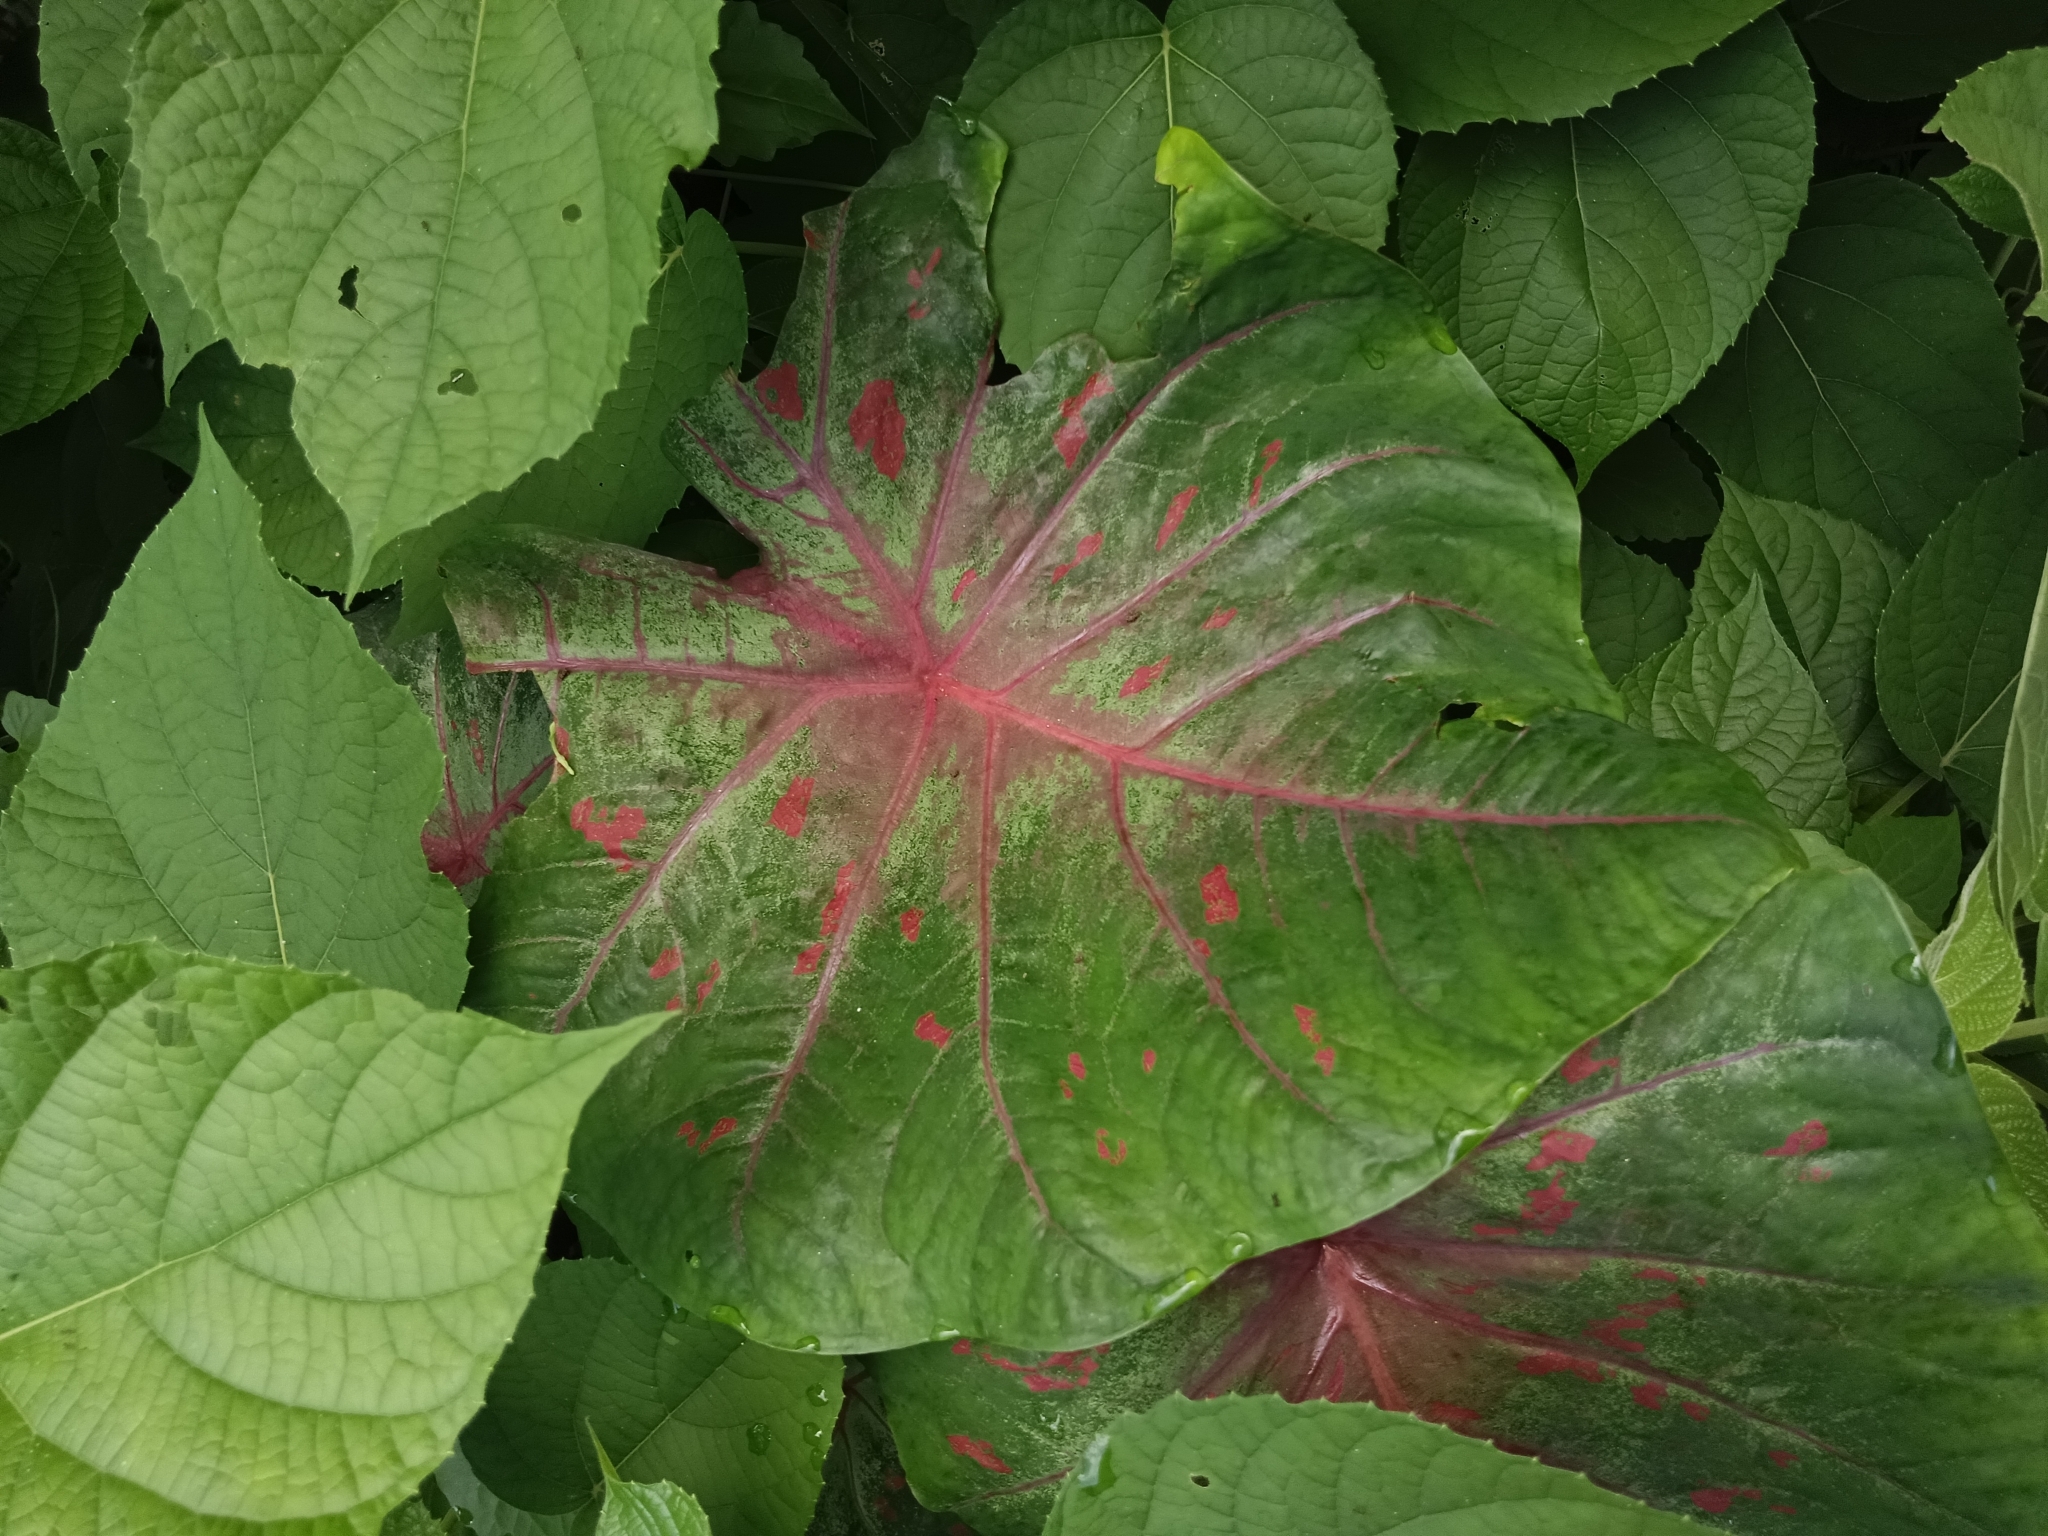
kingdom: Plantae
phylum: Tracheophyta
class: Liliopsida
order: Alismatales
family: Araceae
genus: Caladium
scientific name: Caladium bicolor
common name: Artist's pallet
